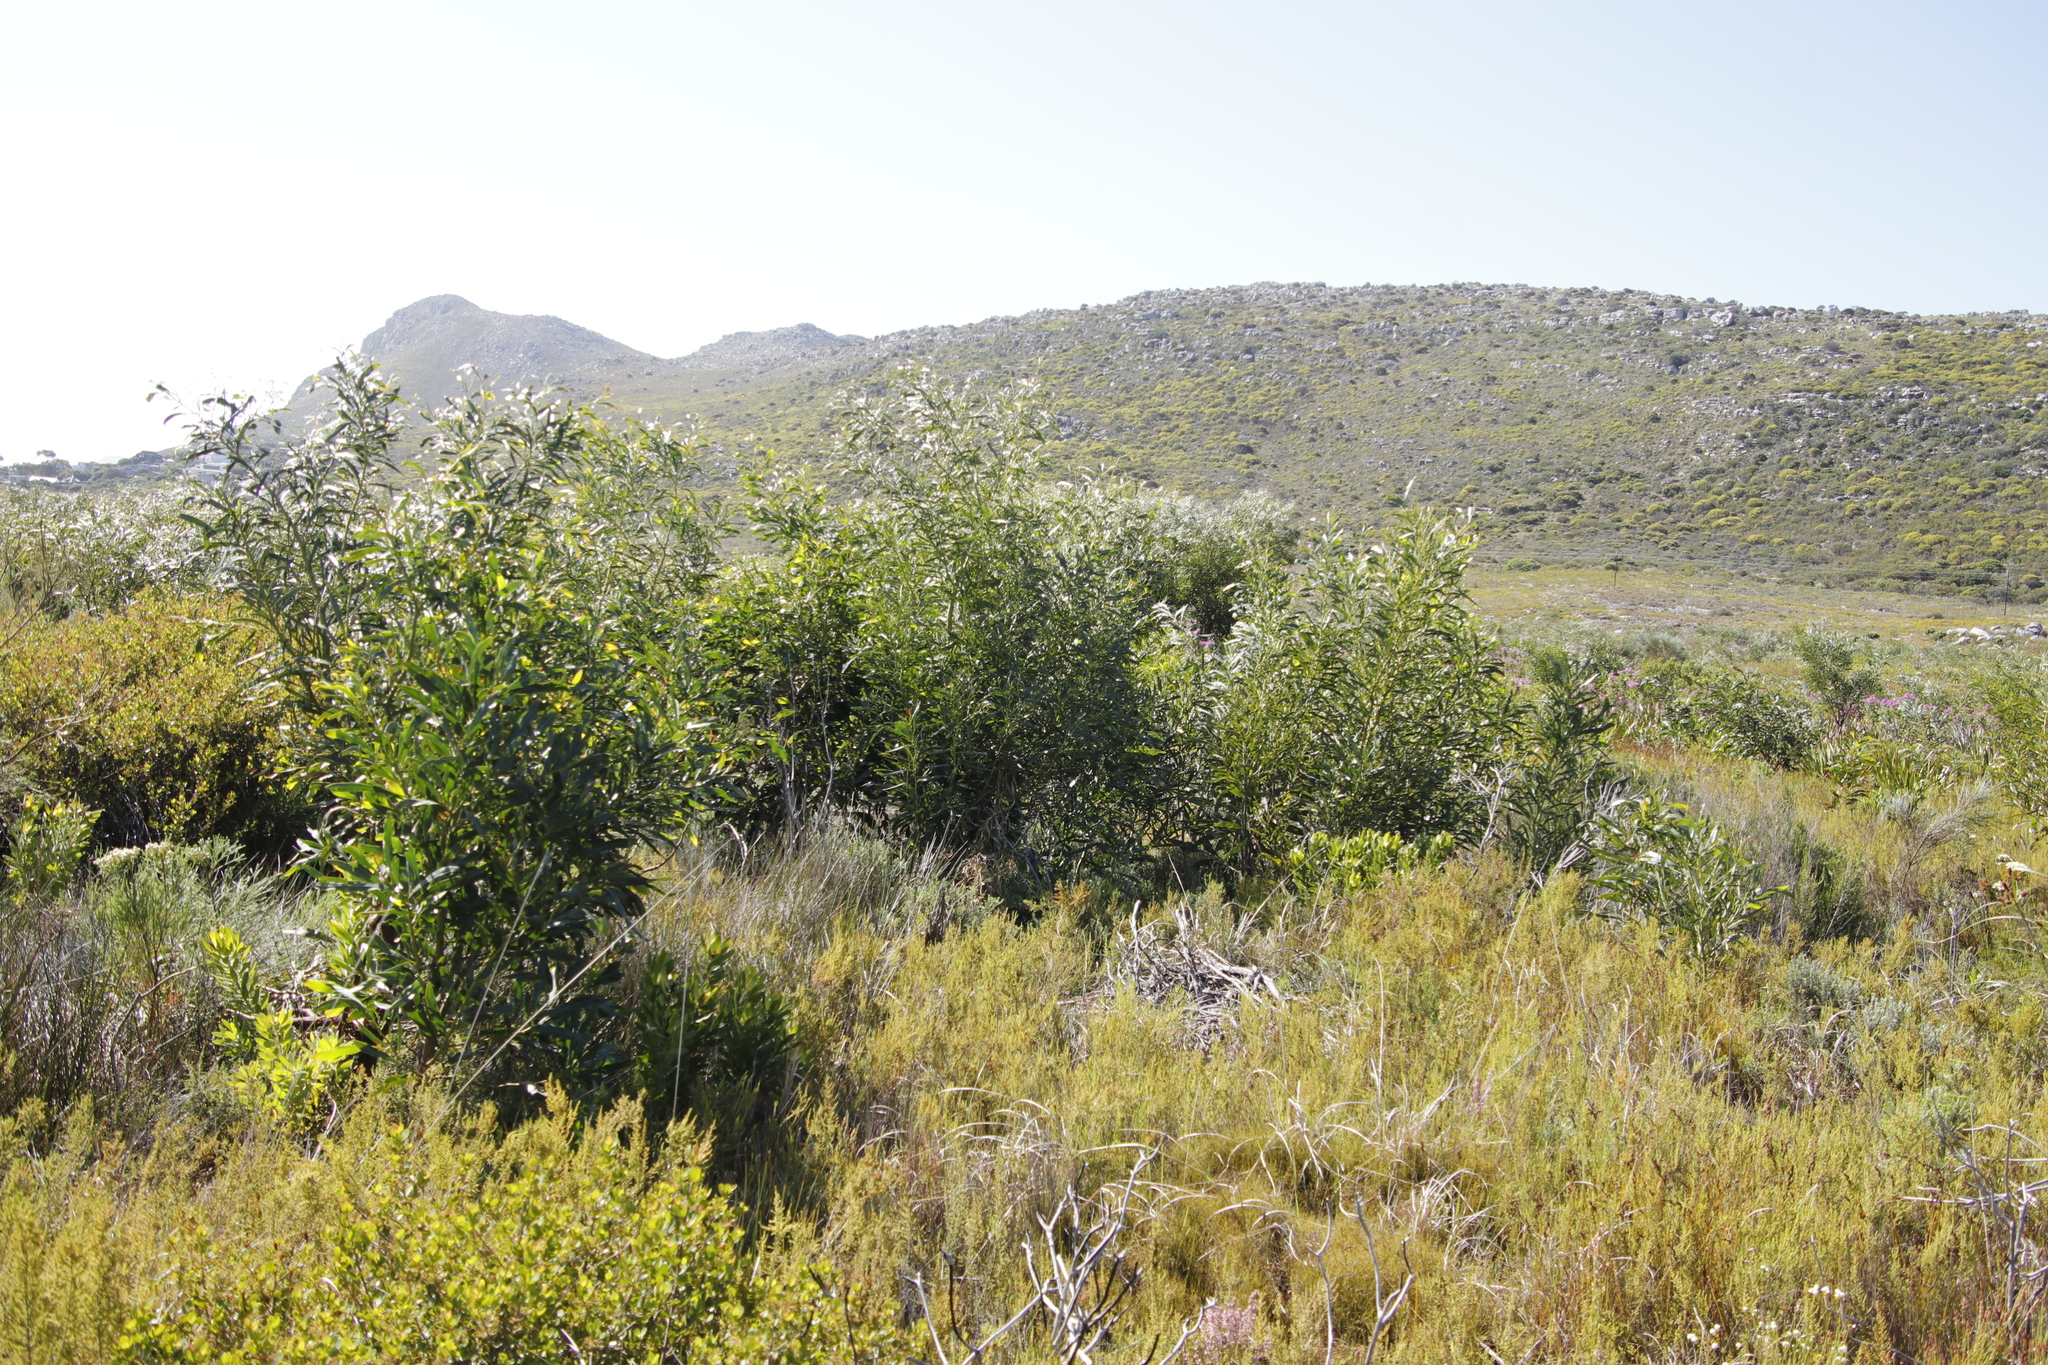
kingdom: Plantae
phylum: Tracheophyta
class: Magnoliopsida
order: Proteales
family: Proteaceae
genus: Leucadendron
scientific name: Leucadendron salignum
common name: Common sunshine conebush
